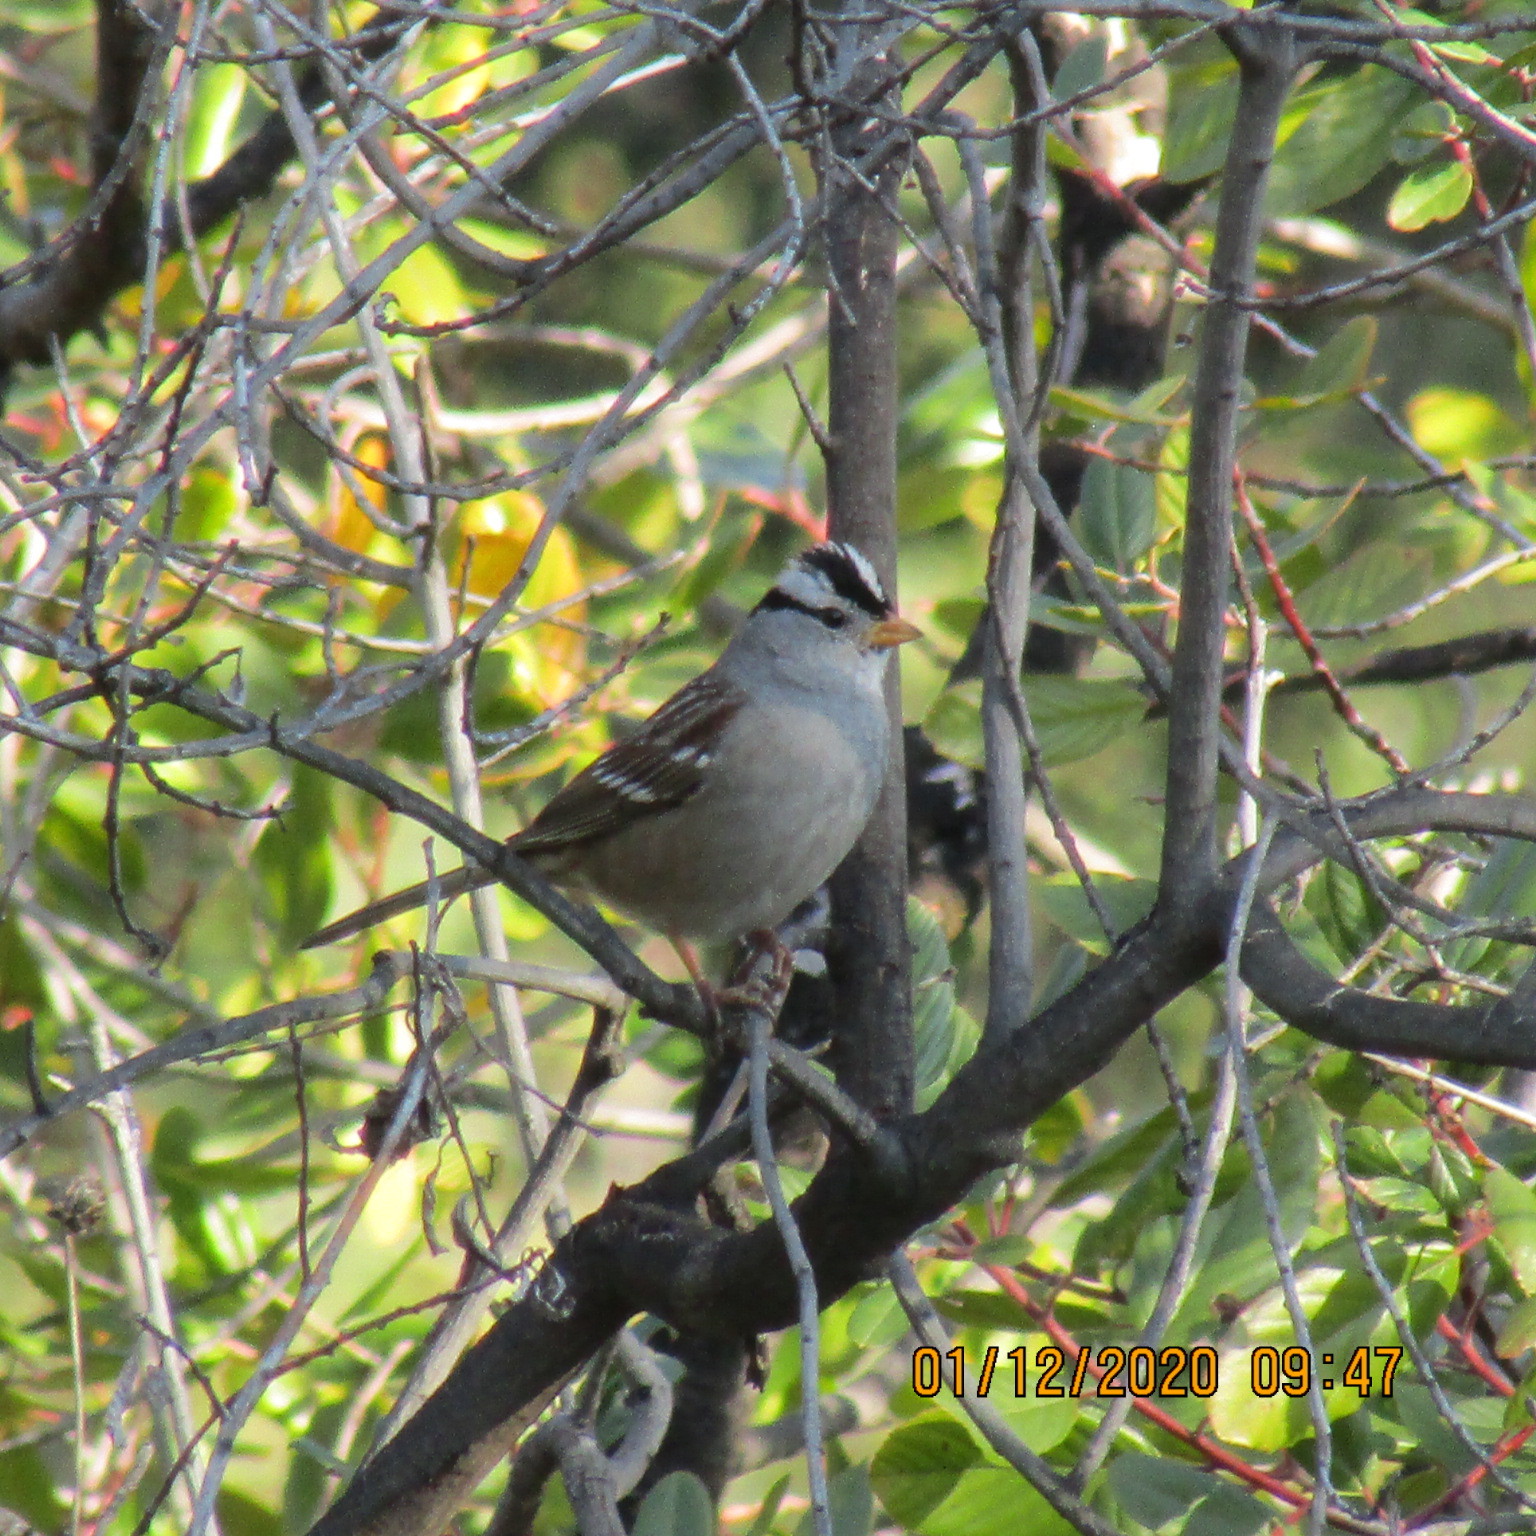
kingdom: Animalia
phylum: Chordata
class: Aves
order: Passeriformes
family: Passerellidae
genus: Zonotrichia
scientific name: Zonotrichia leucophrys
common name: White-crowned sparrow
